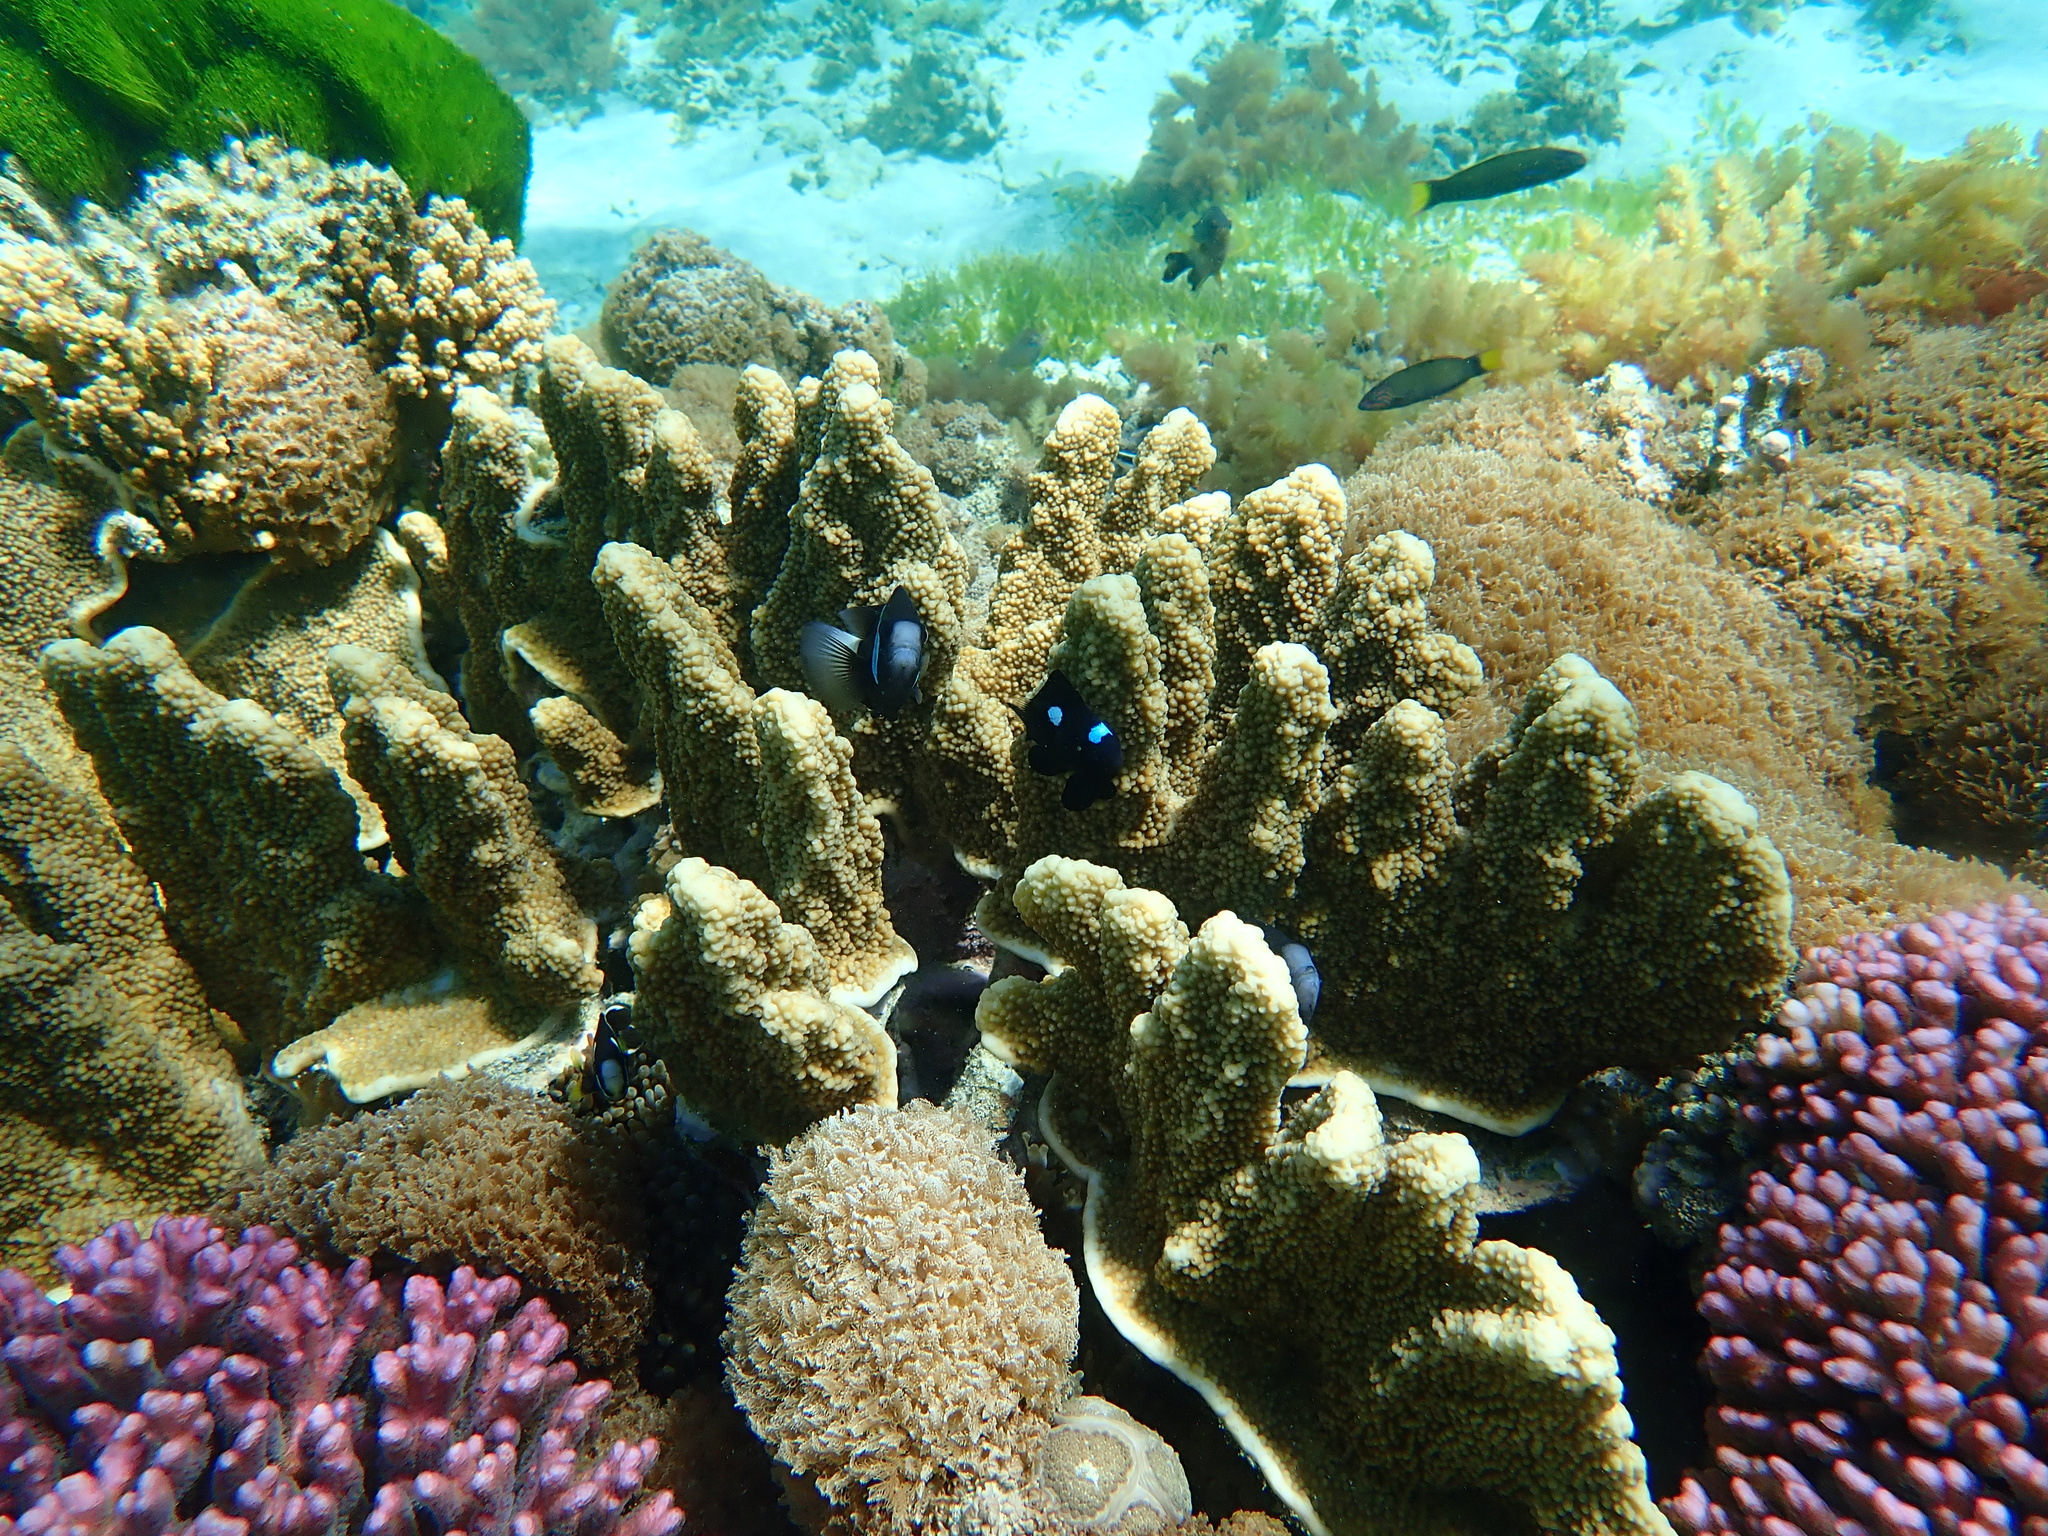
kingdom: Animalia
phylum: Chordata
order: Perciformes
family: Pomacentridae
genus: Dascyllus
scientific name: Dascyllus trimaculatus
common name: Threespot dascyllus
